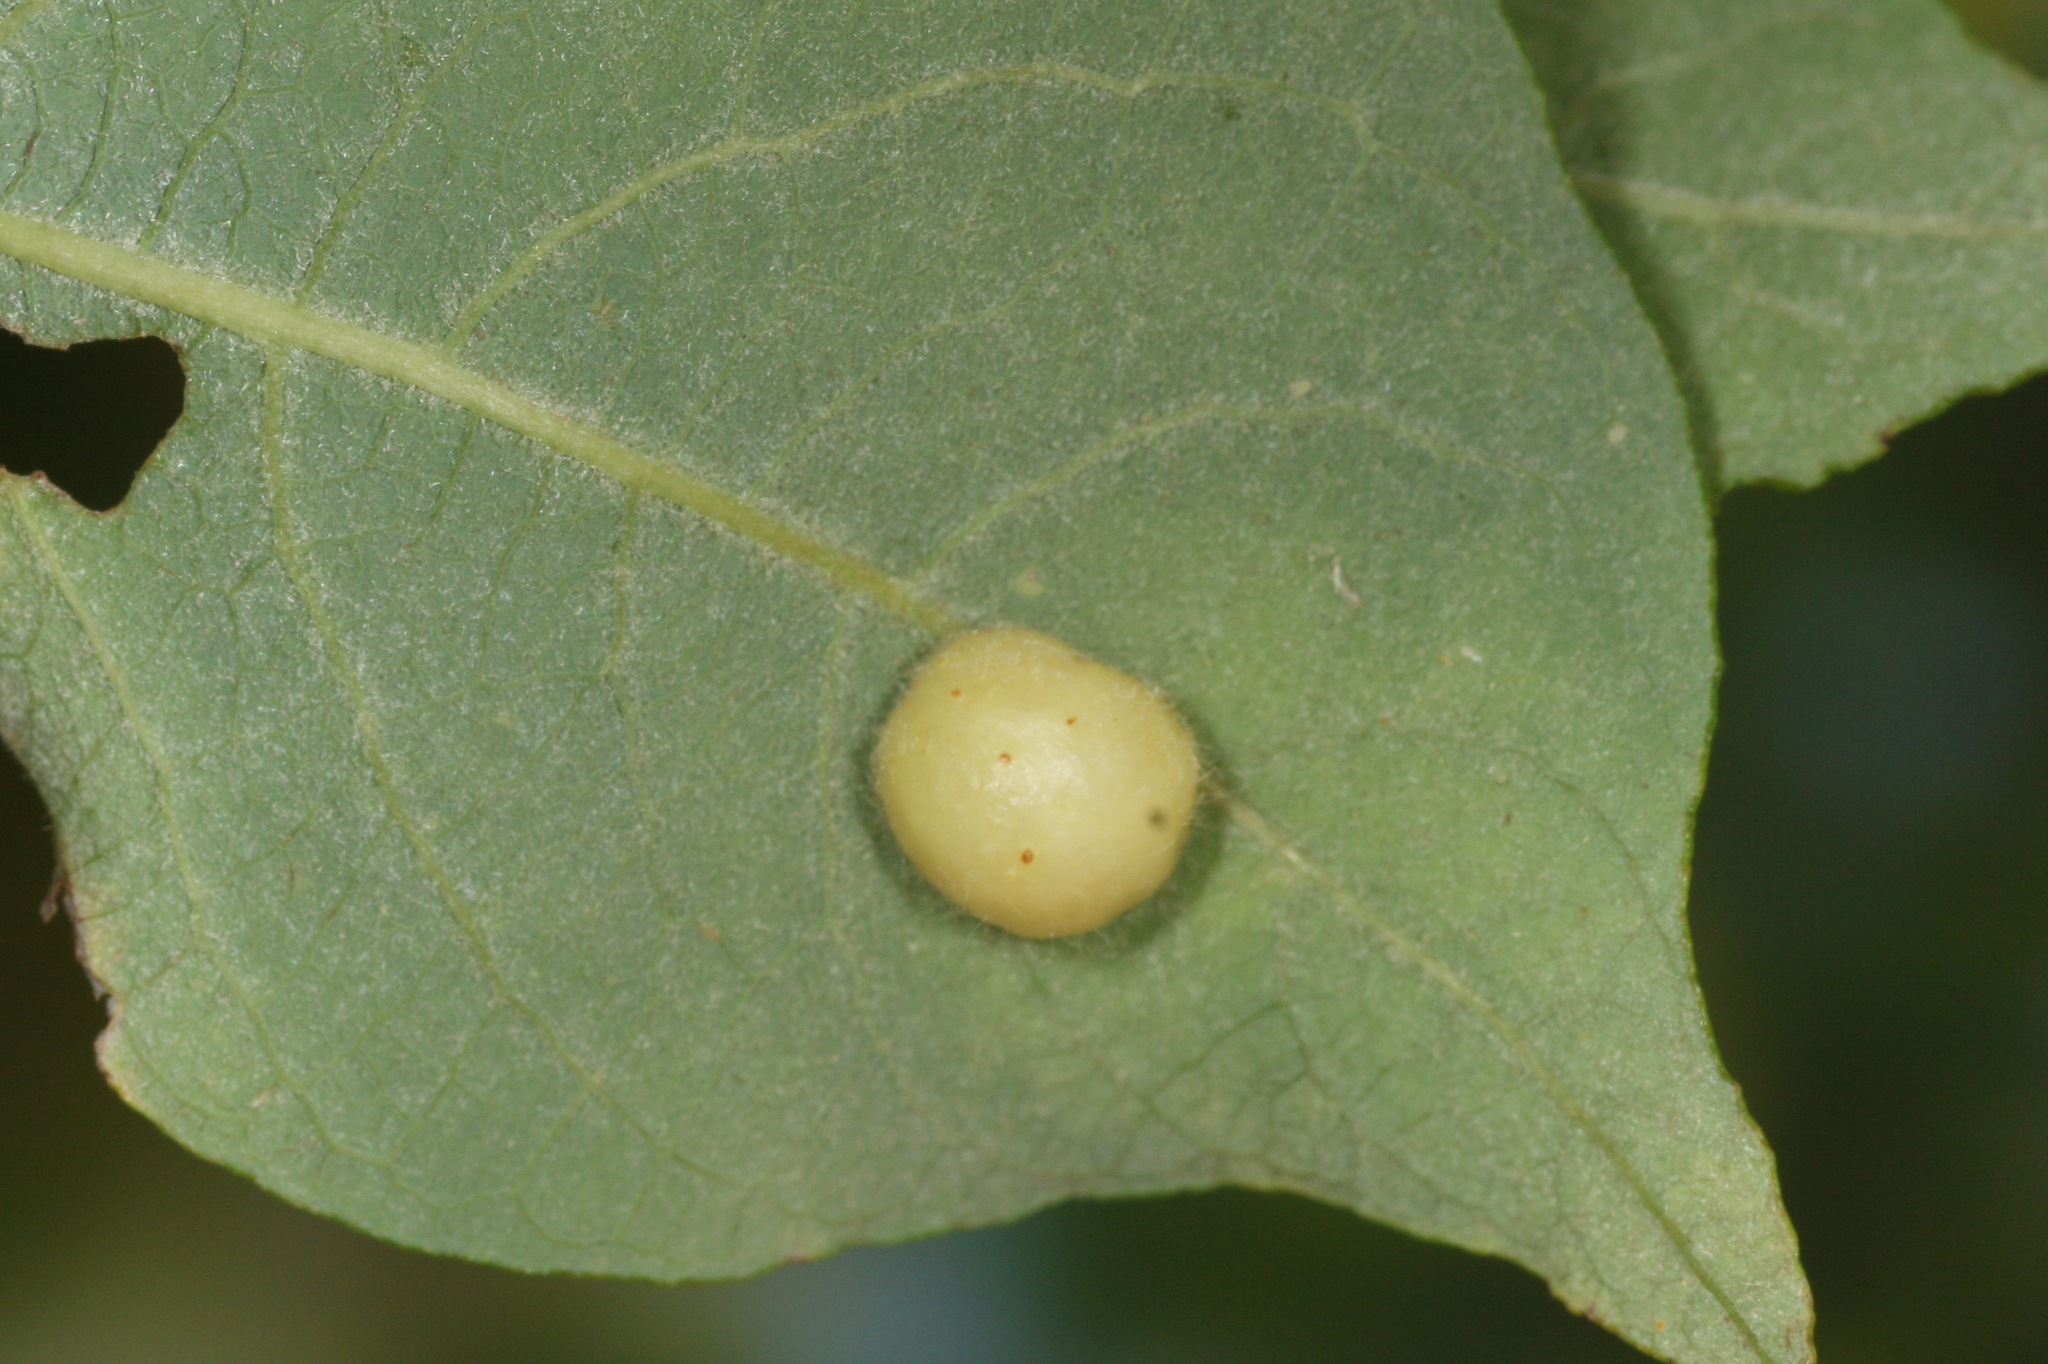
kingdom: Animalia
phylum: Arthropoda
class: Insecta
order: Hymenoptera
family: Tenthredinidae
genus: Pontania
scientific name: Pontania pedunculi
